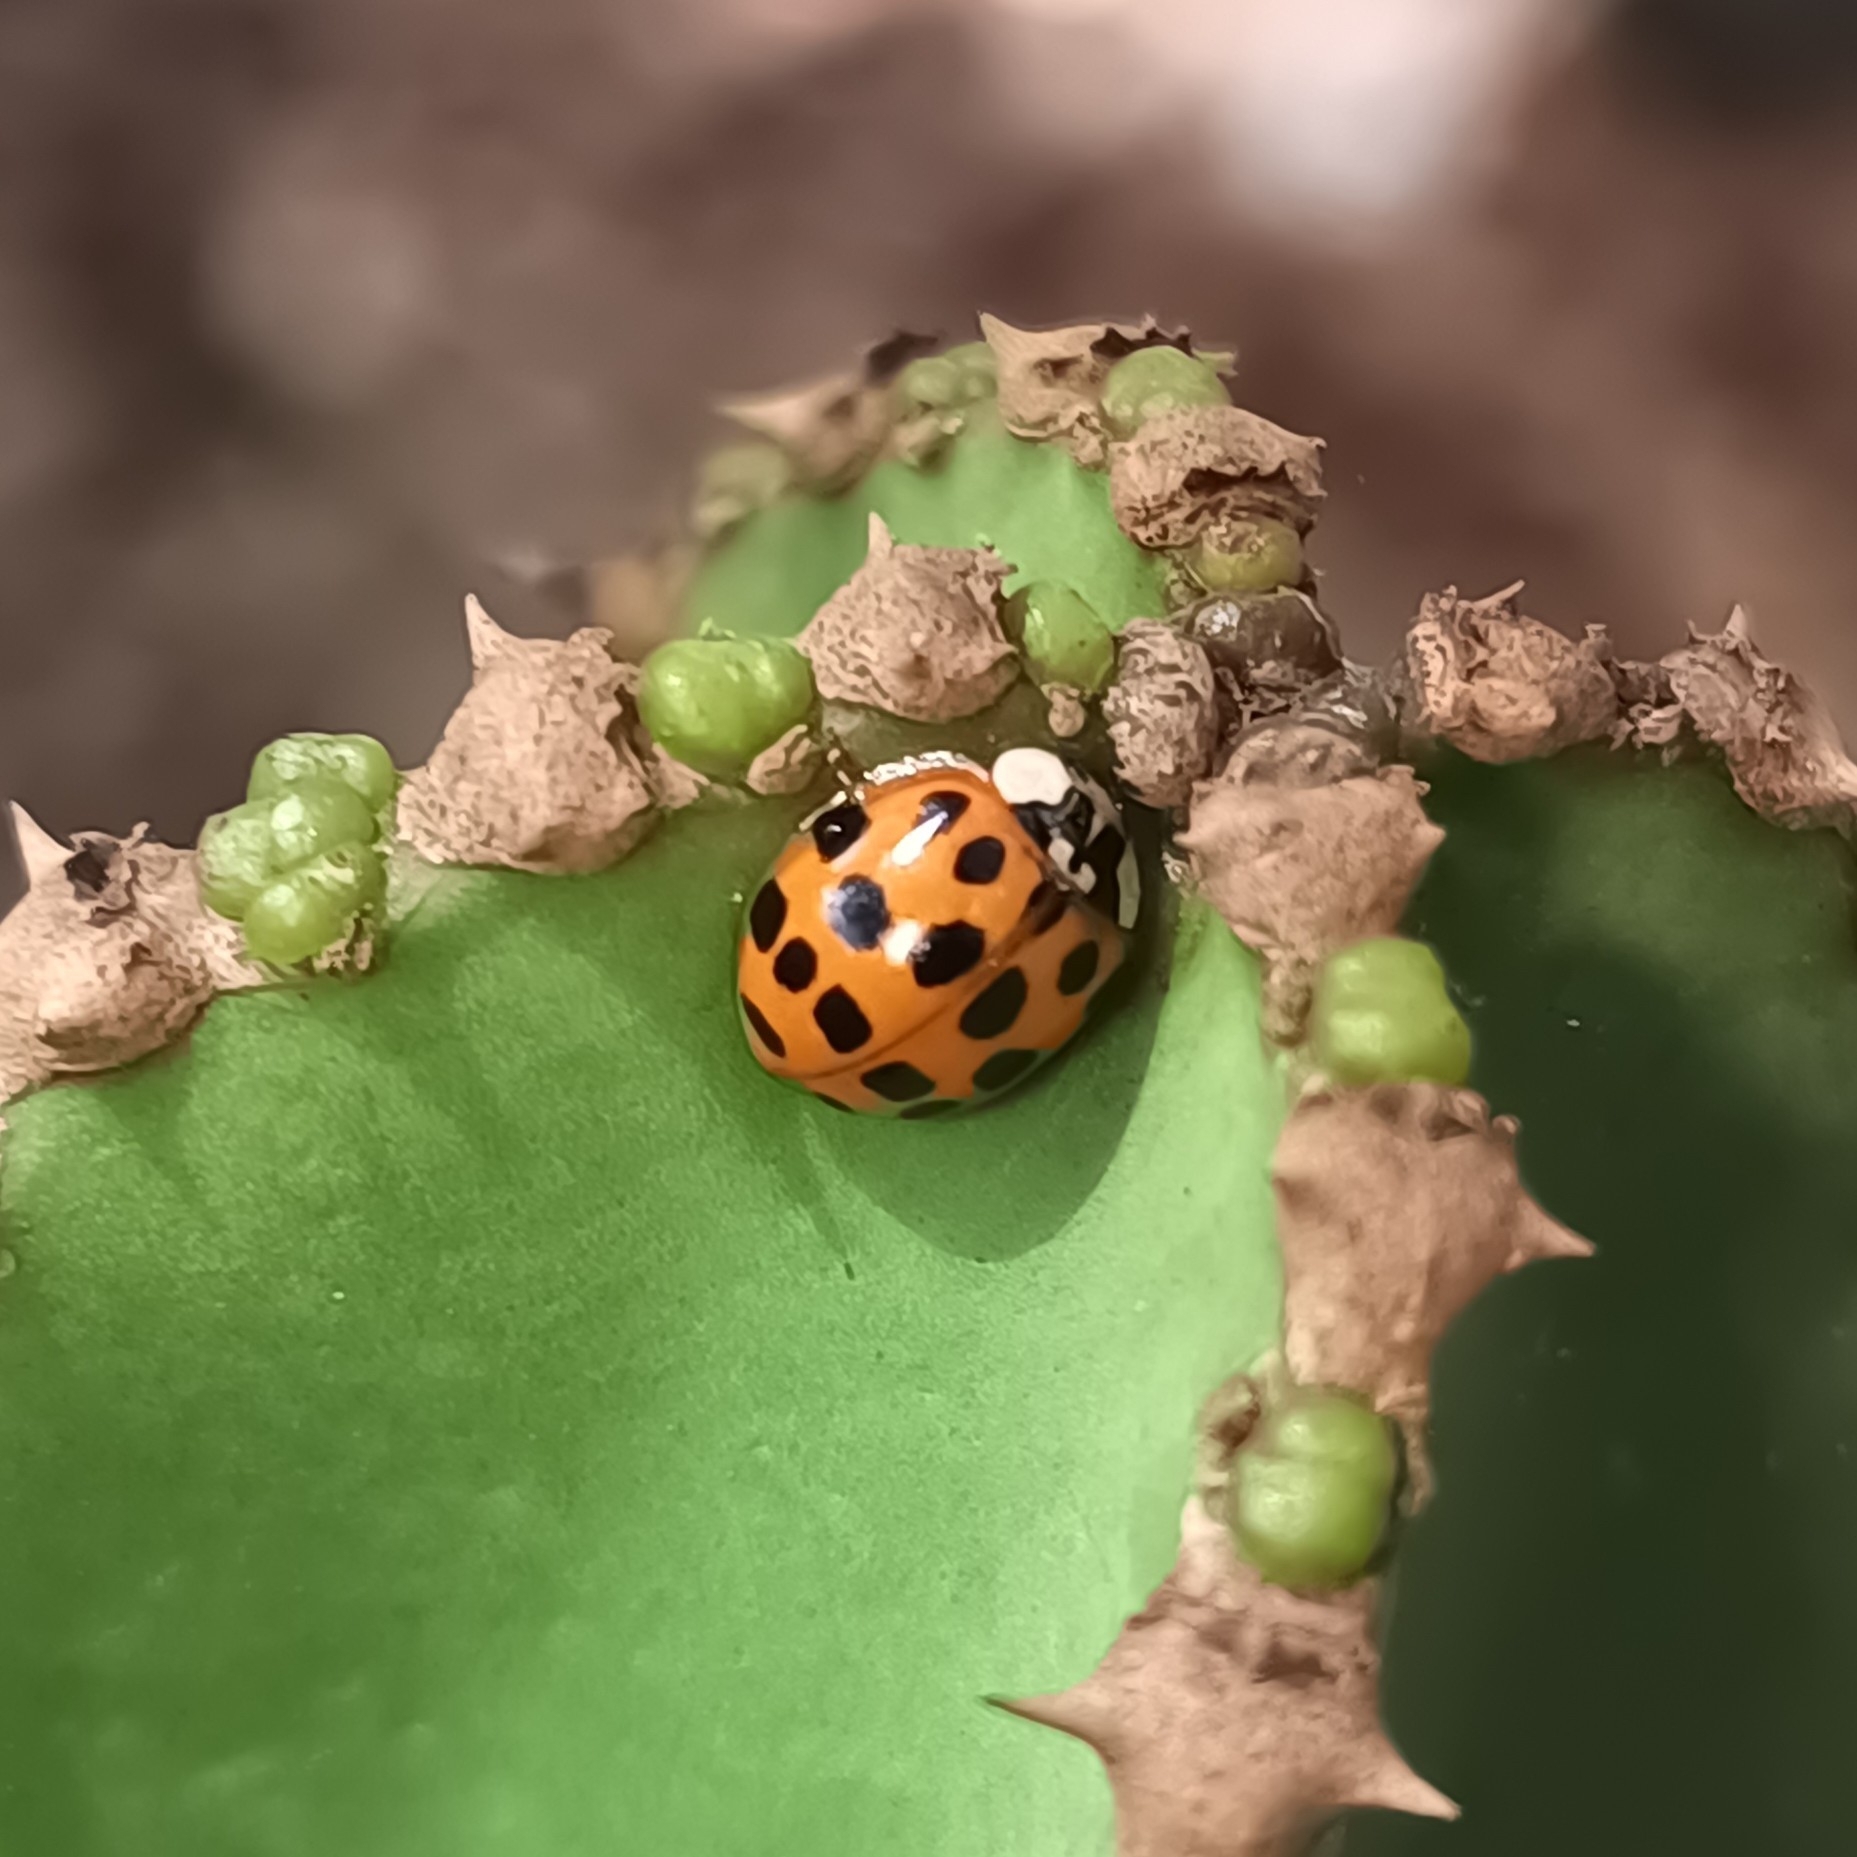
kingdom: Animalia
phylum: Arthropoda
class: Insecta
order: Coleoptera
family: Coccinellidae
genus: Harmonia
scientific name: Harmonia axyridis
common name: Harlequin ladybird
